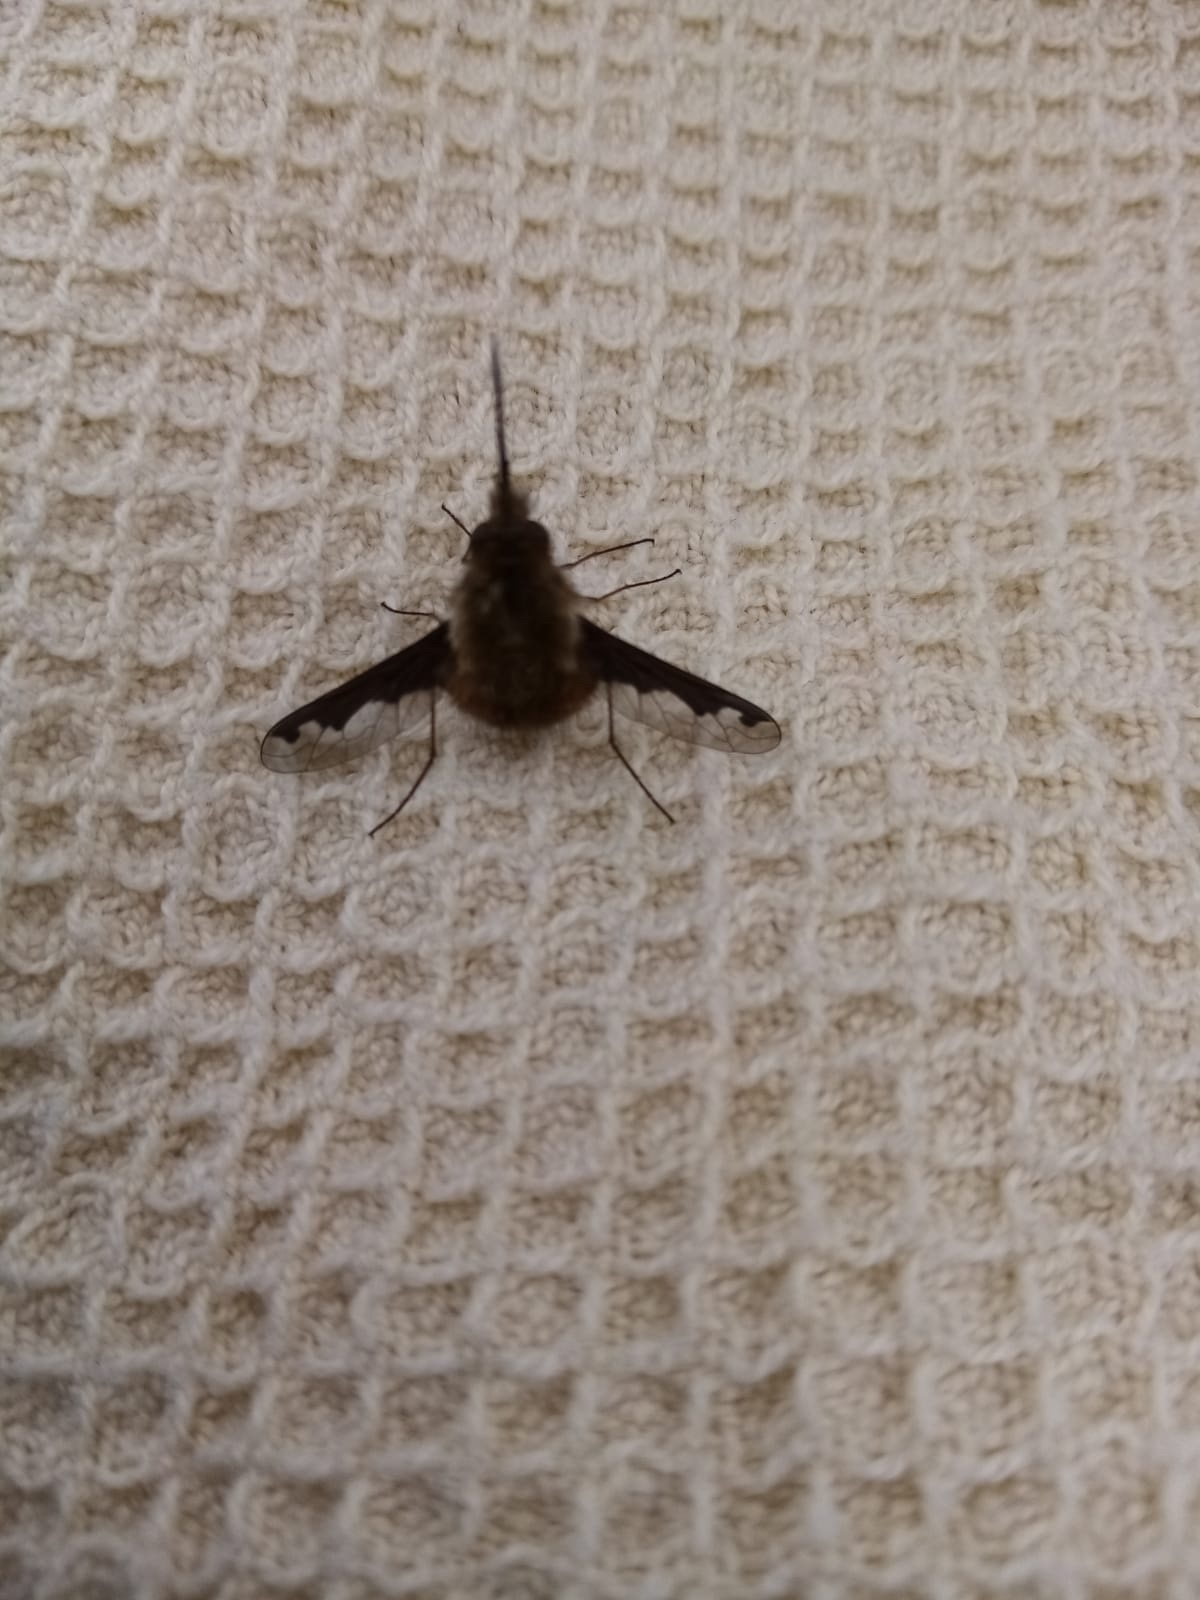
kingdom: Animalia
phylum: Arthropoda
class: Insecta
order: Diptera
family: Bombyliidae
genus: Bombylius
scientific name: Bombylius major
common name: Bee fly
